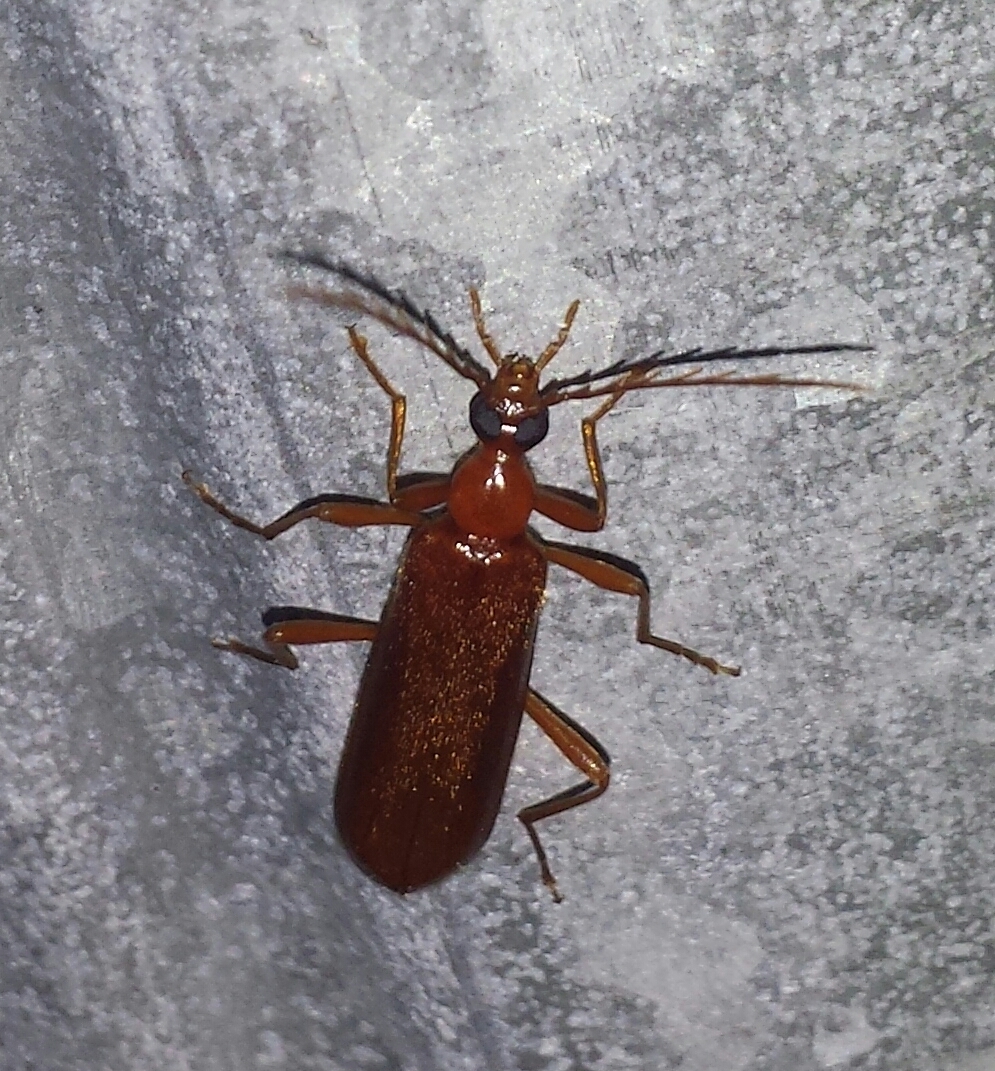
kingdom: Animalia
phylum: Arthropoda
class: Insecta
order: Coleoptera
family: Pyrochroidae
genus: Dendroides
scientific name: Dendroides concolor
